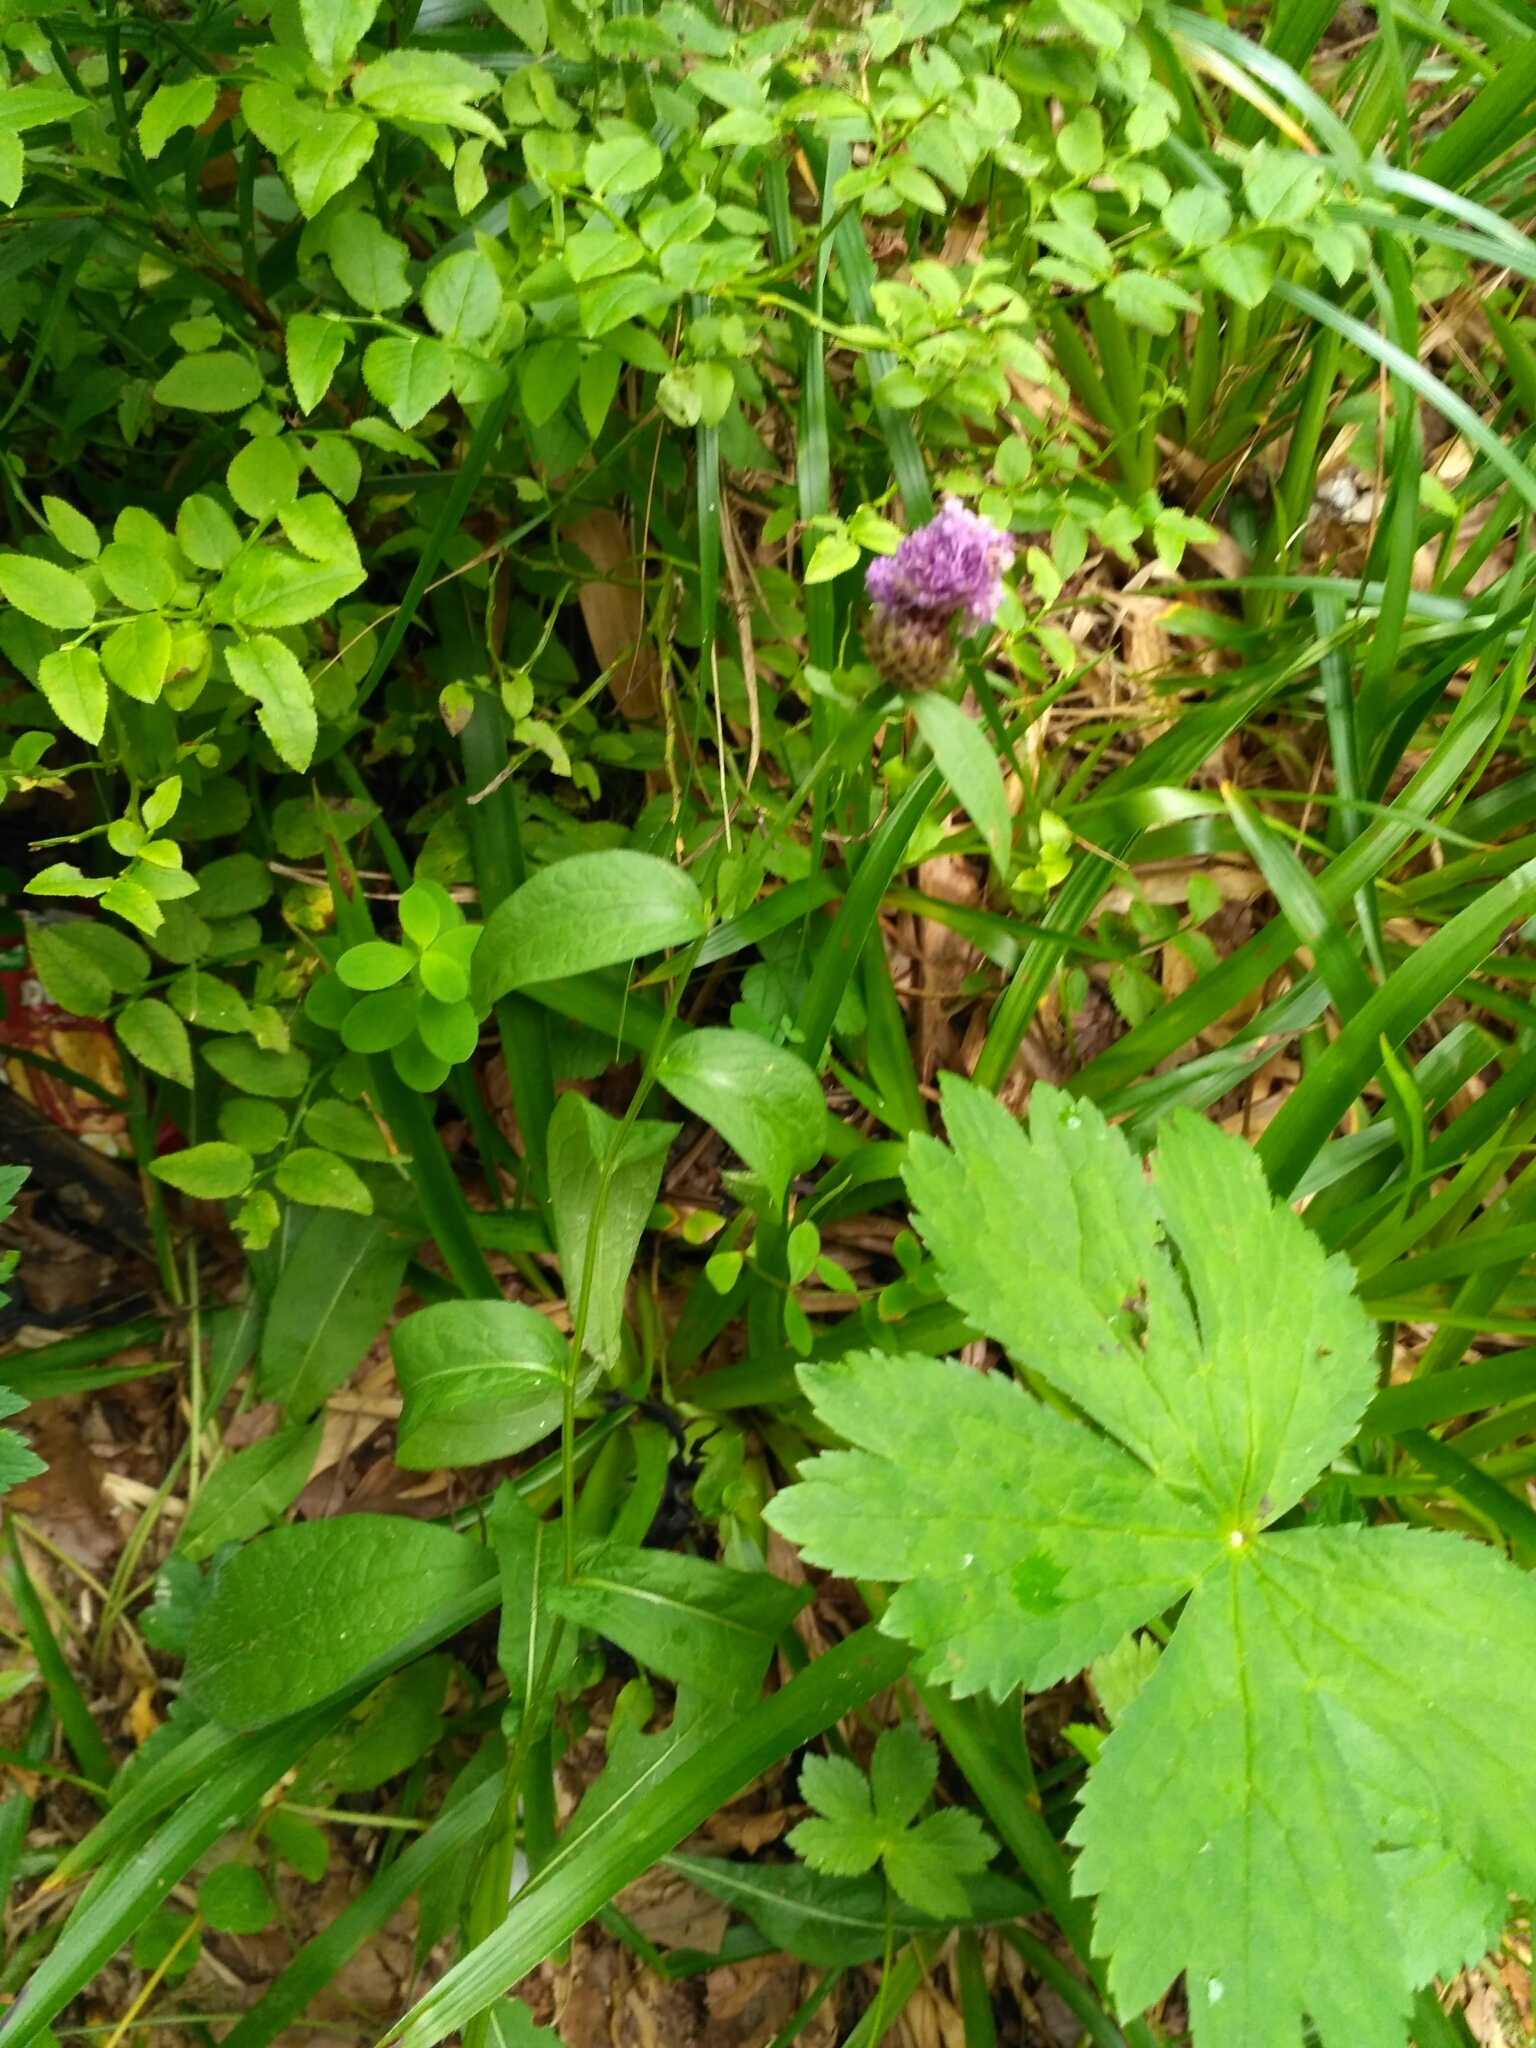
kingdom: Plantae
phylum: Tracheophyta
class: Magnoliopsida
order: Asterales
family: Asteraceae
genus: Centaurea
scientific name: Centaurea phrygia
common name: Wig knapweed
